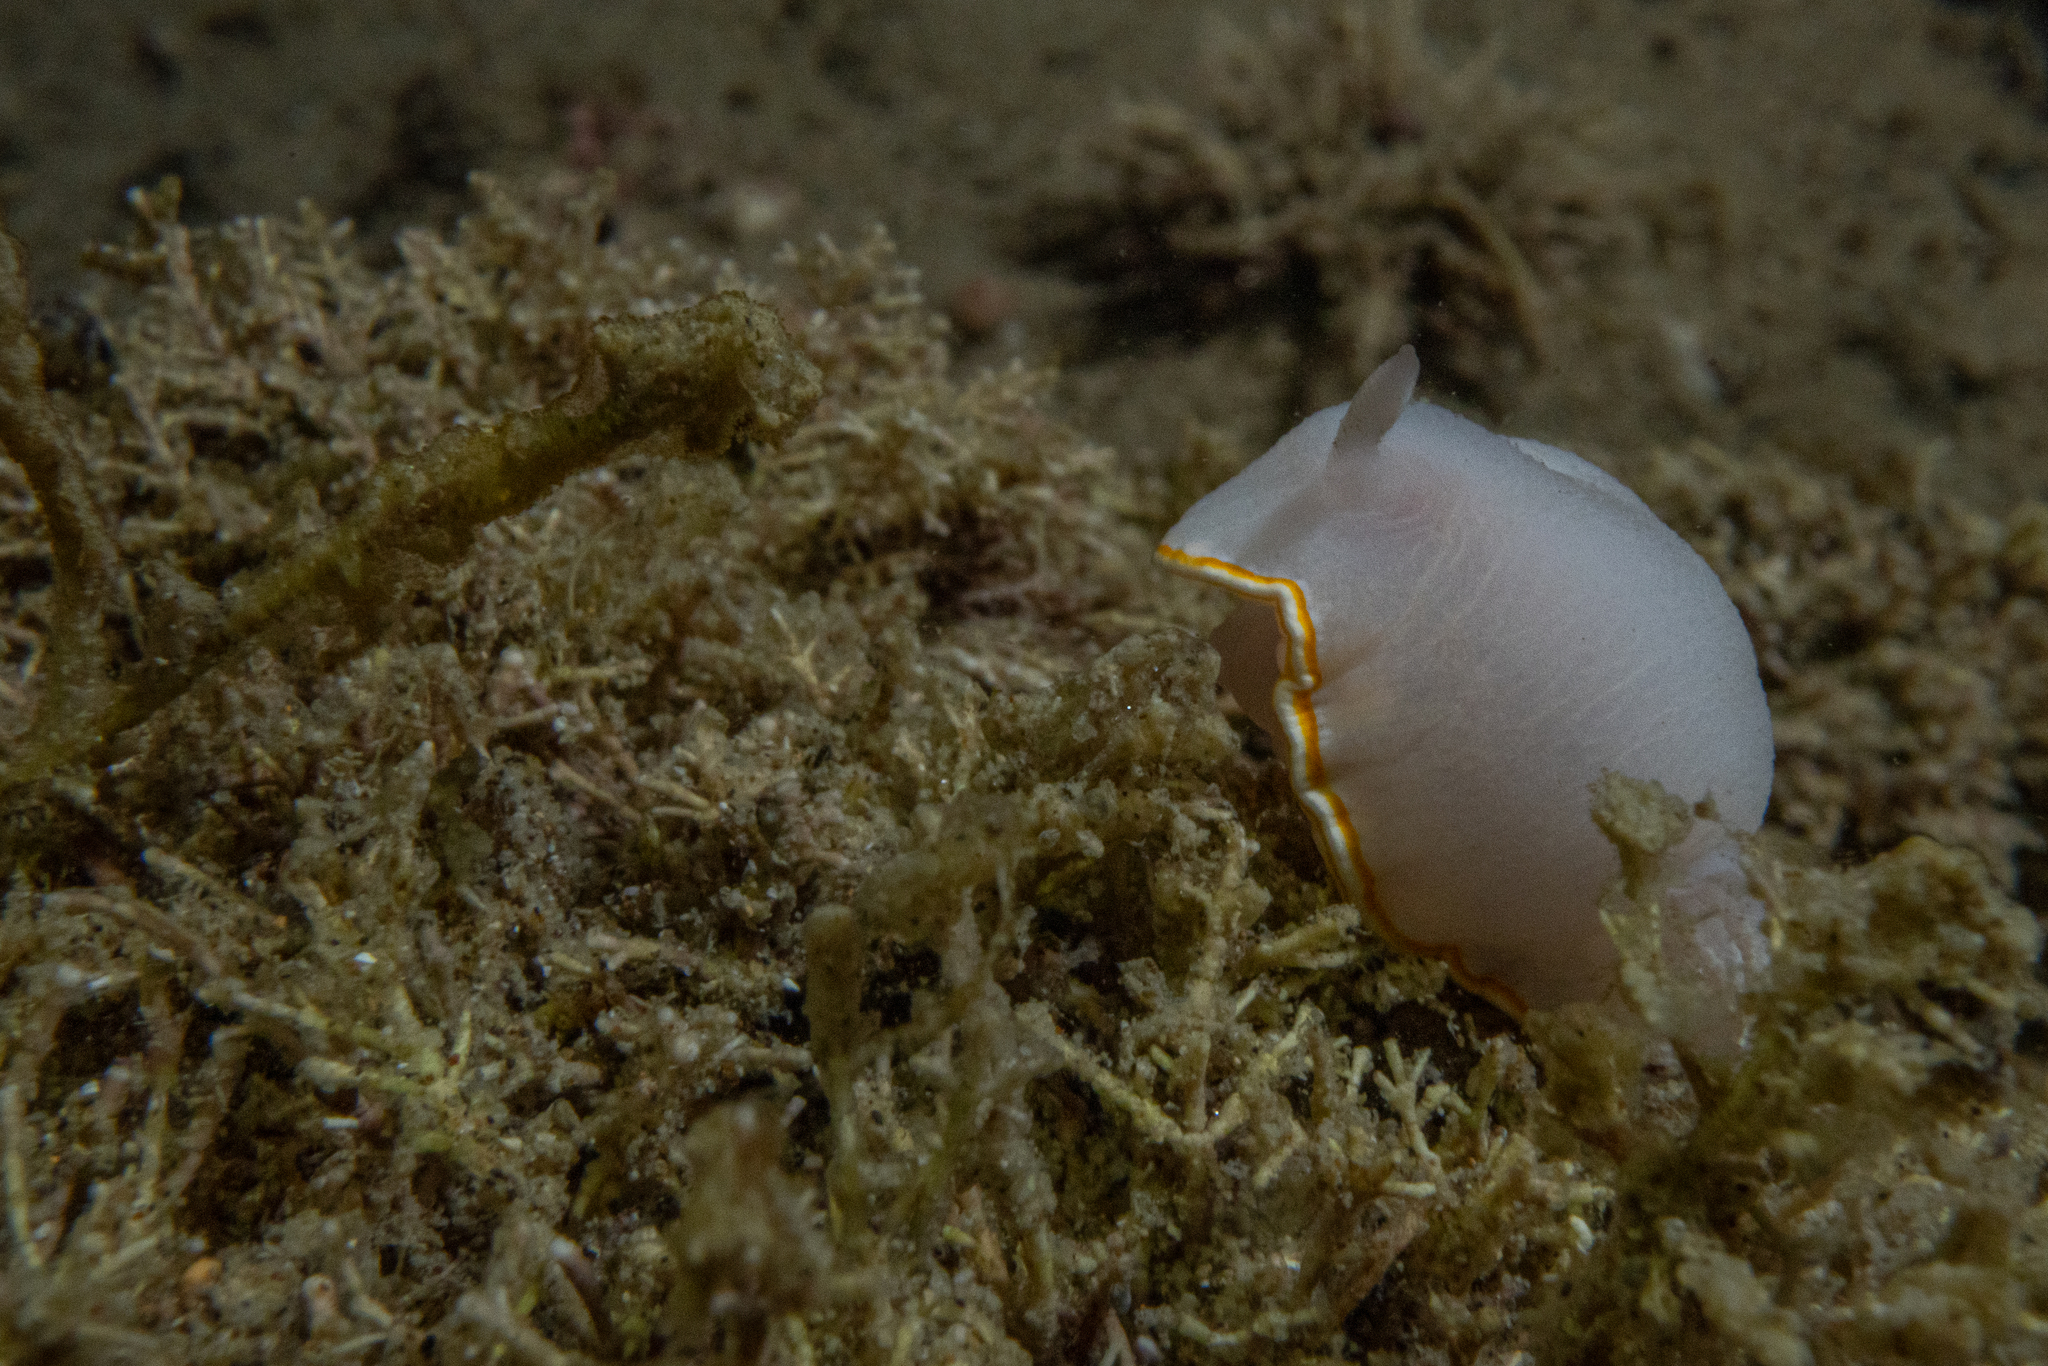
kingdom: Animalia
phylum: Mollusca
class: Gastropoda
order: Nudibranchia
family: Chromodorididae
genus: Goniobranchus
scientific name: Goniobranchus aureomarginatus
